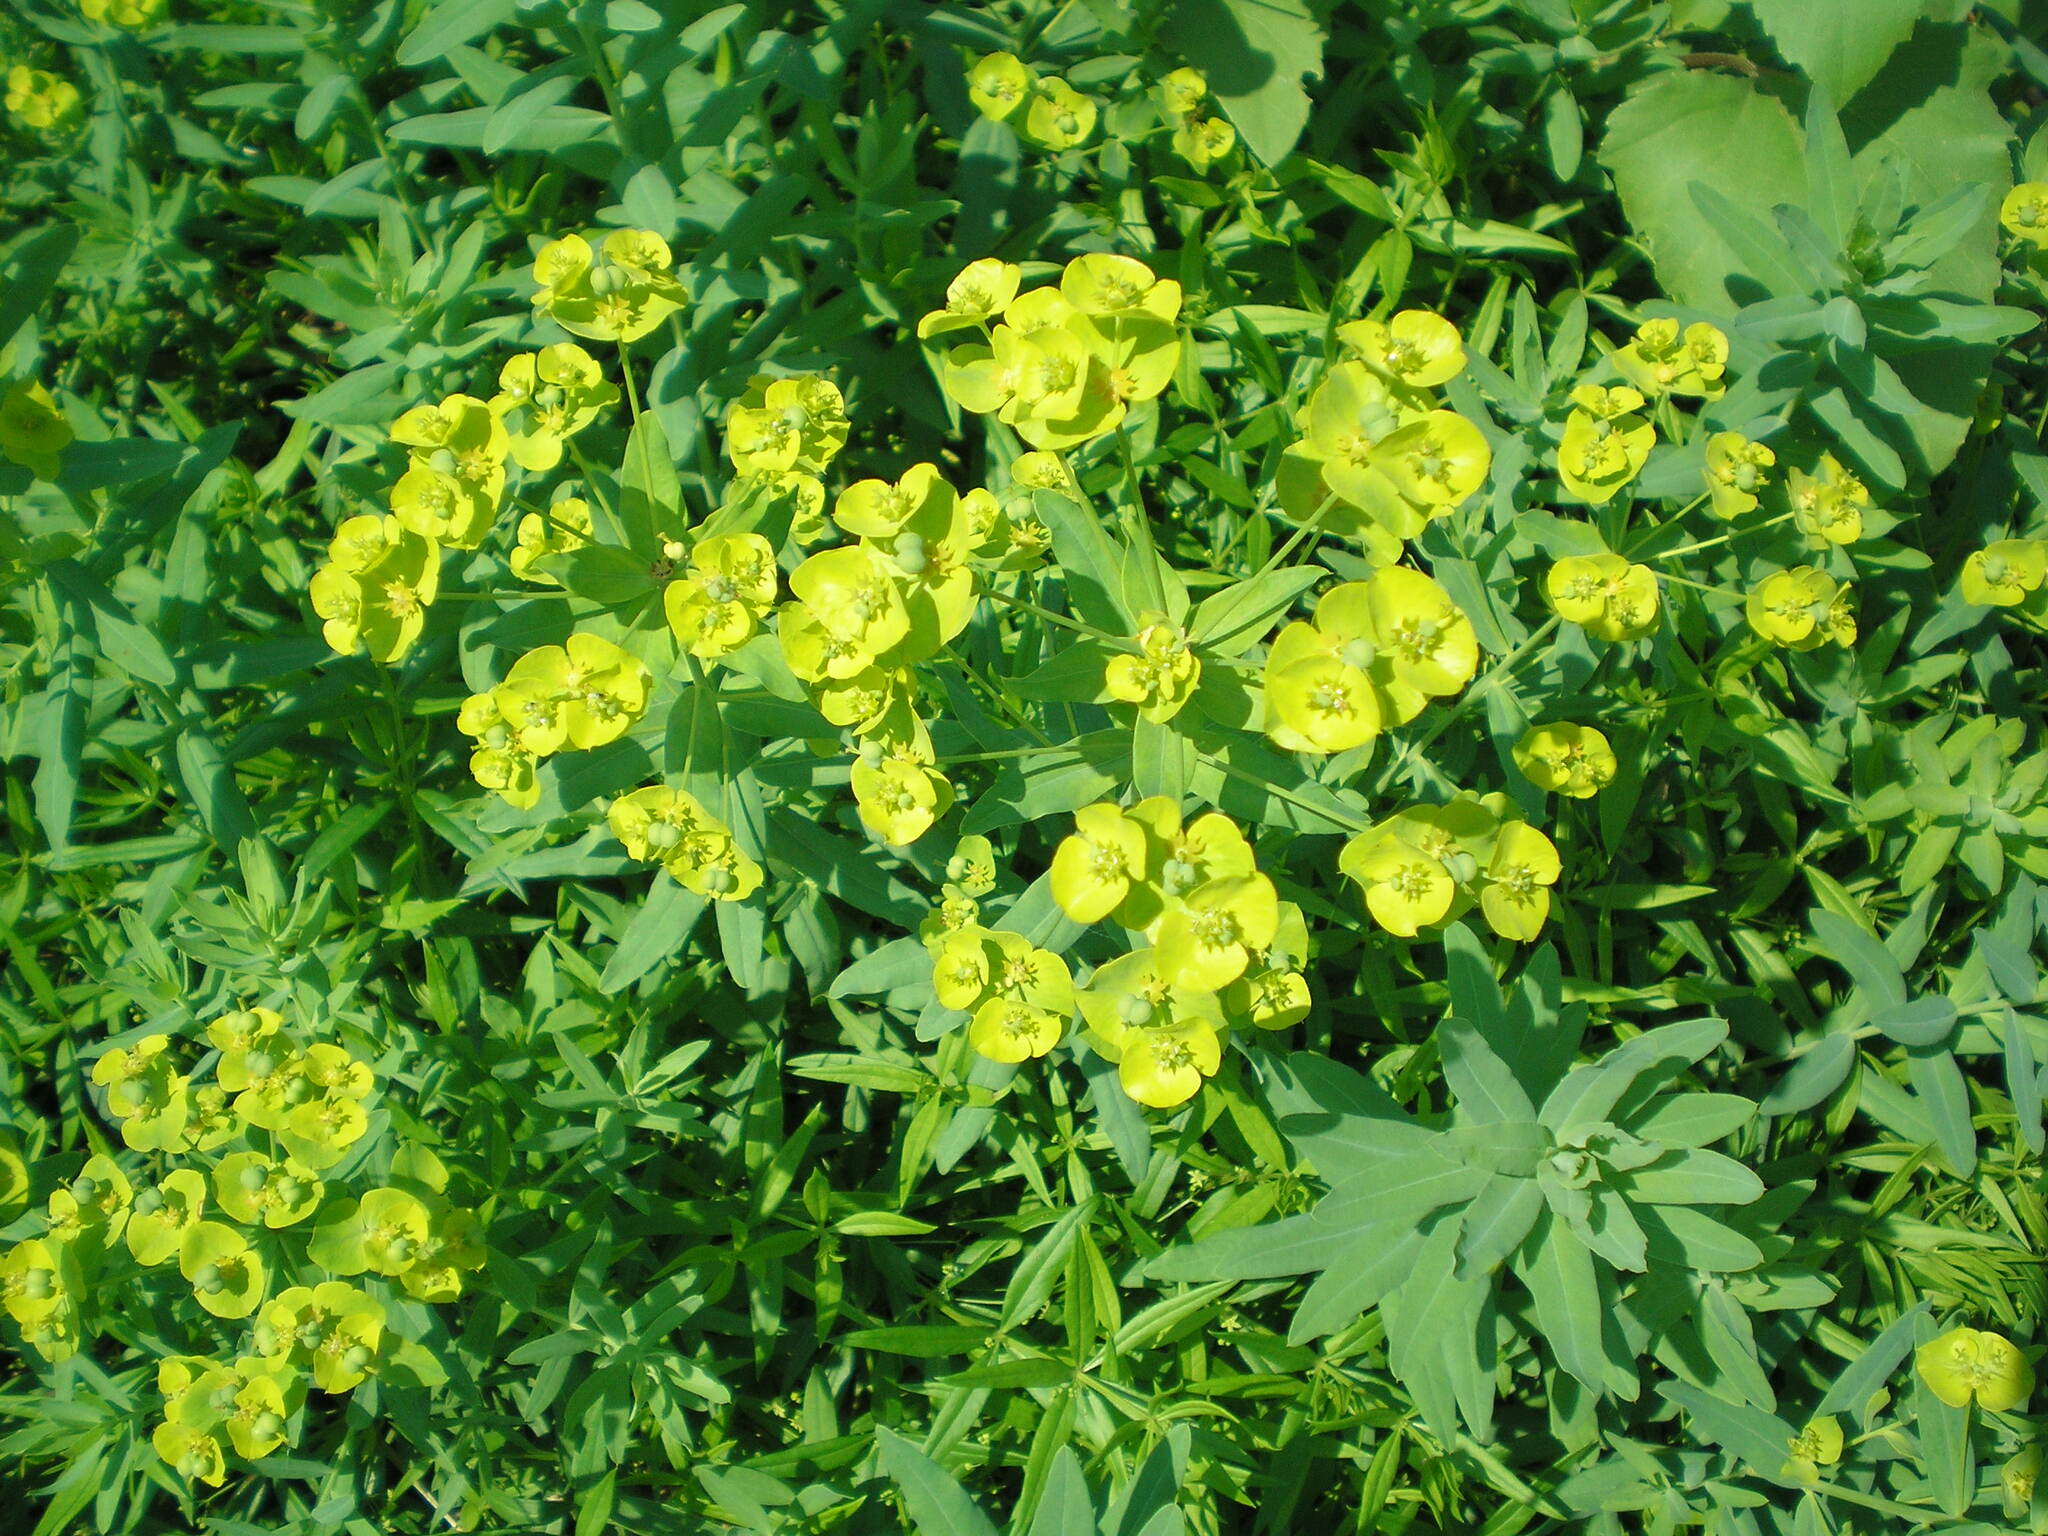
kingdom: Plantae
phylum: Tracheophyta
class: Magnoliopsida
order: Malpighiales
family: Euphorbiaceae
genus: Euphorbia
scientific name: Euphorbia virgata
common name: Leafy spurge
